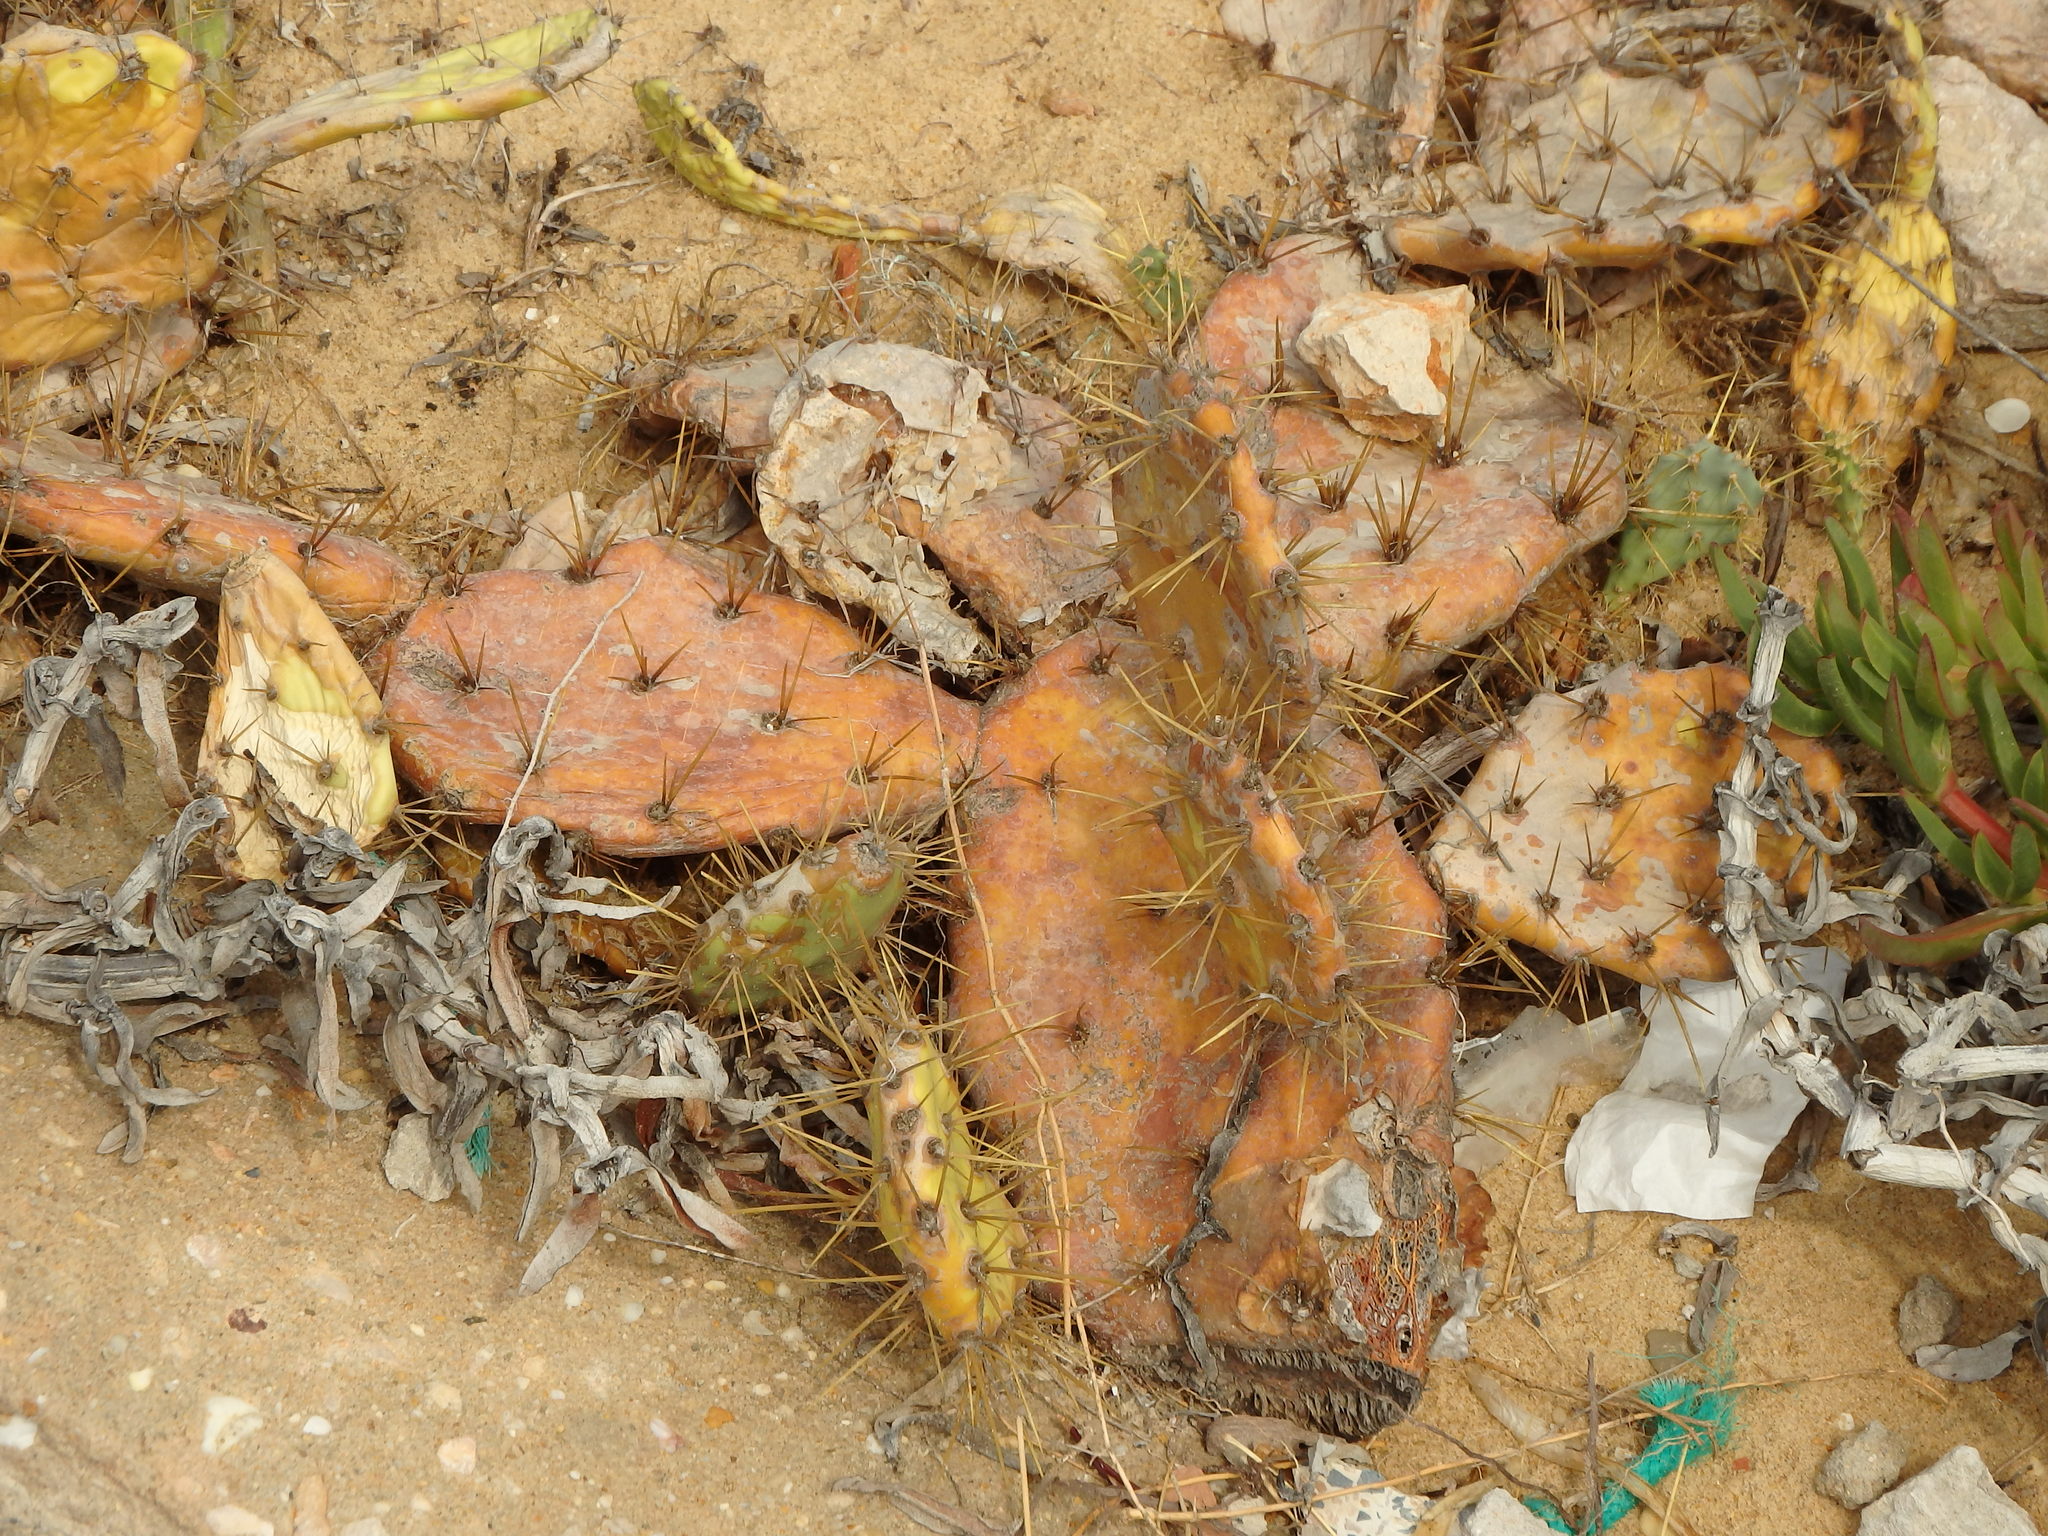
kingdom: Plantae
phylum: Tracheophyta
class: Magnoliopsida
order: Caryophyllales
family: Cactaceae
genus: Opuntia
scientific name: Opuntia stricta
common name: Erect pricklypear
